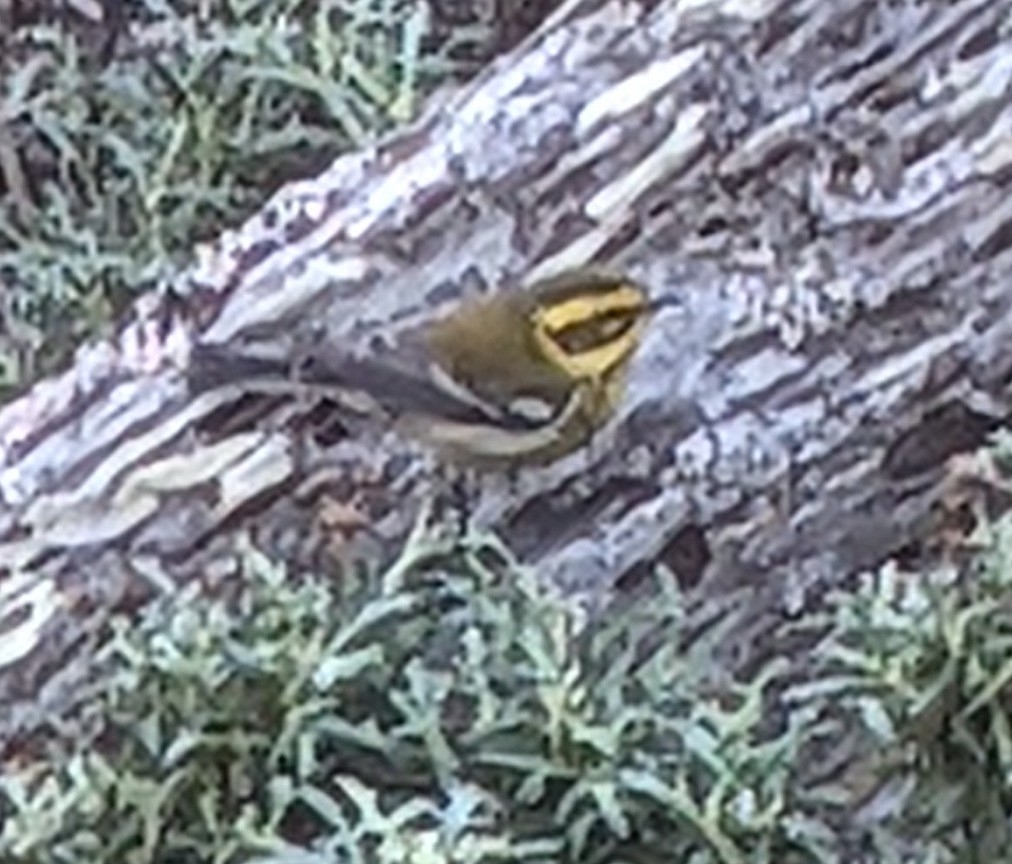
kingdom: Animalia
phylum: Chordata
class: Aves
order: Passeriformes
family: Parulidae
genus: Setophaga
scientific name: Setophaga townsendi
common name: Townsend's warbler
